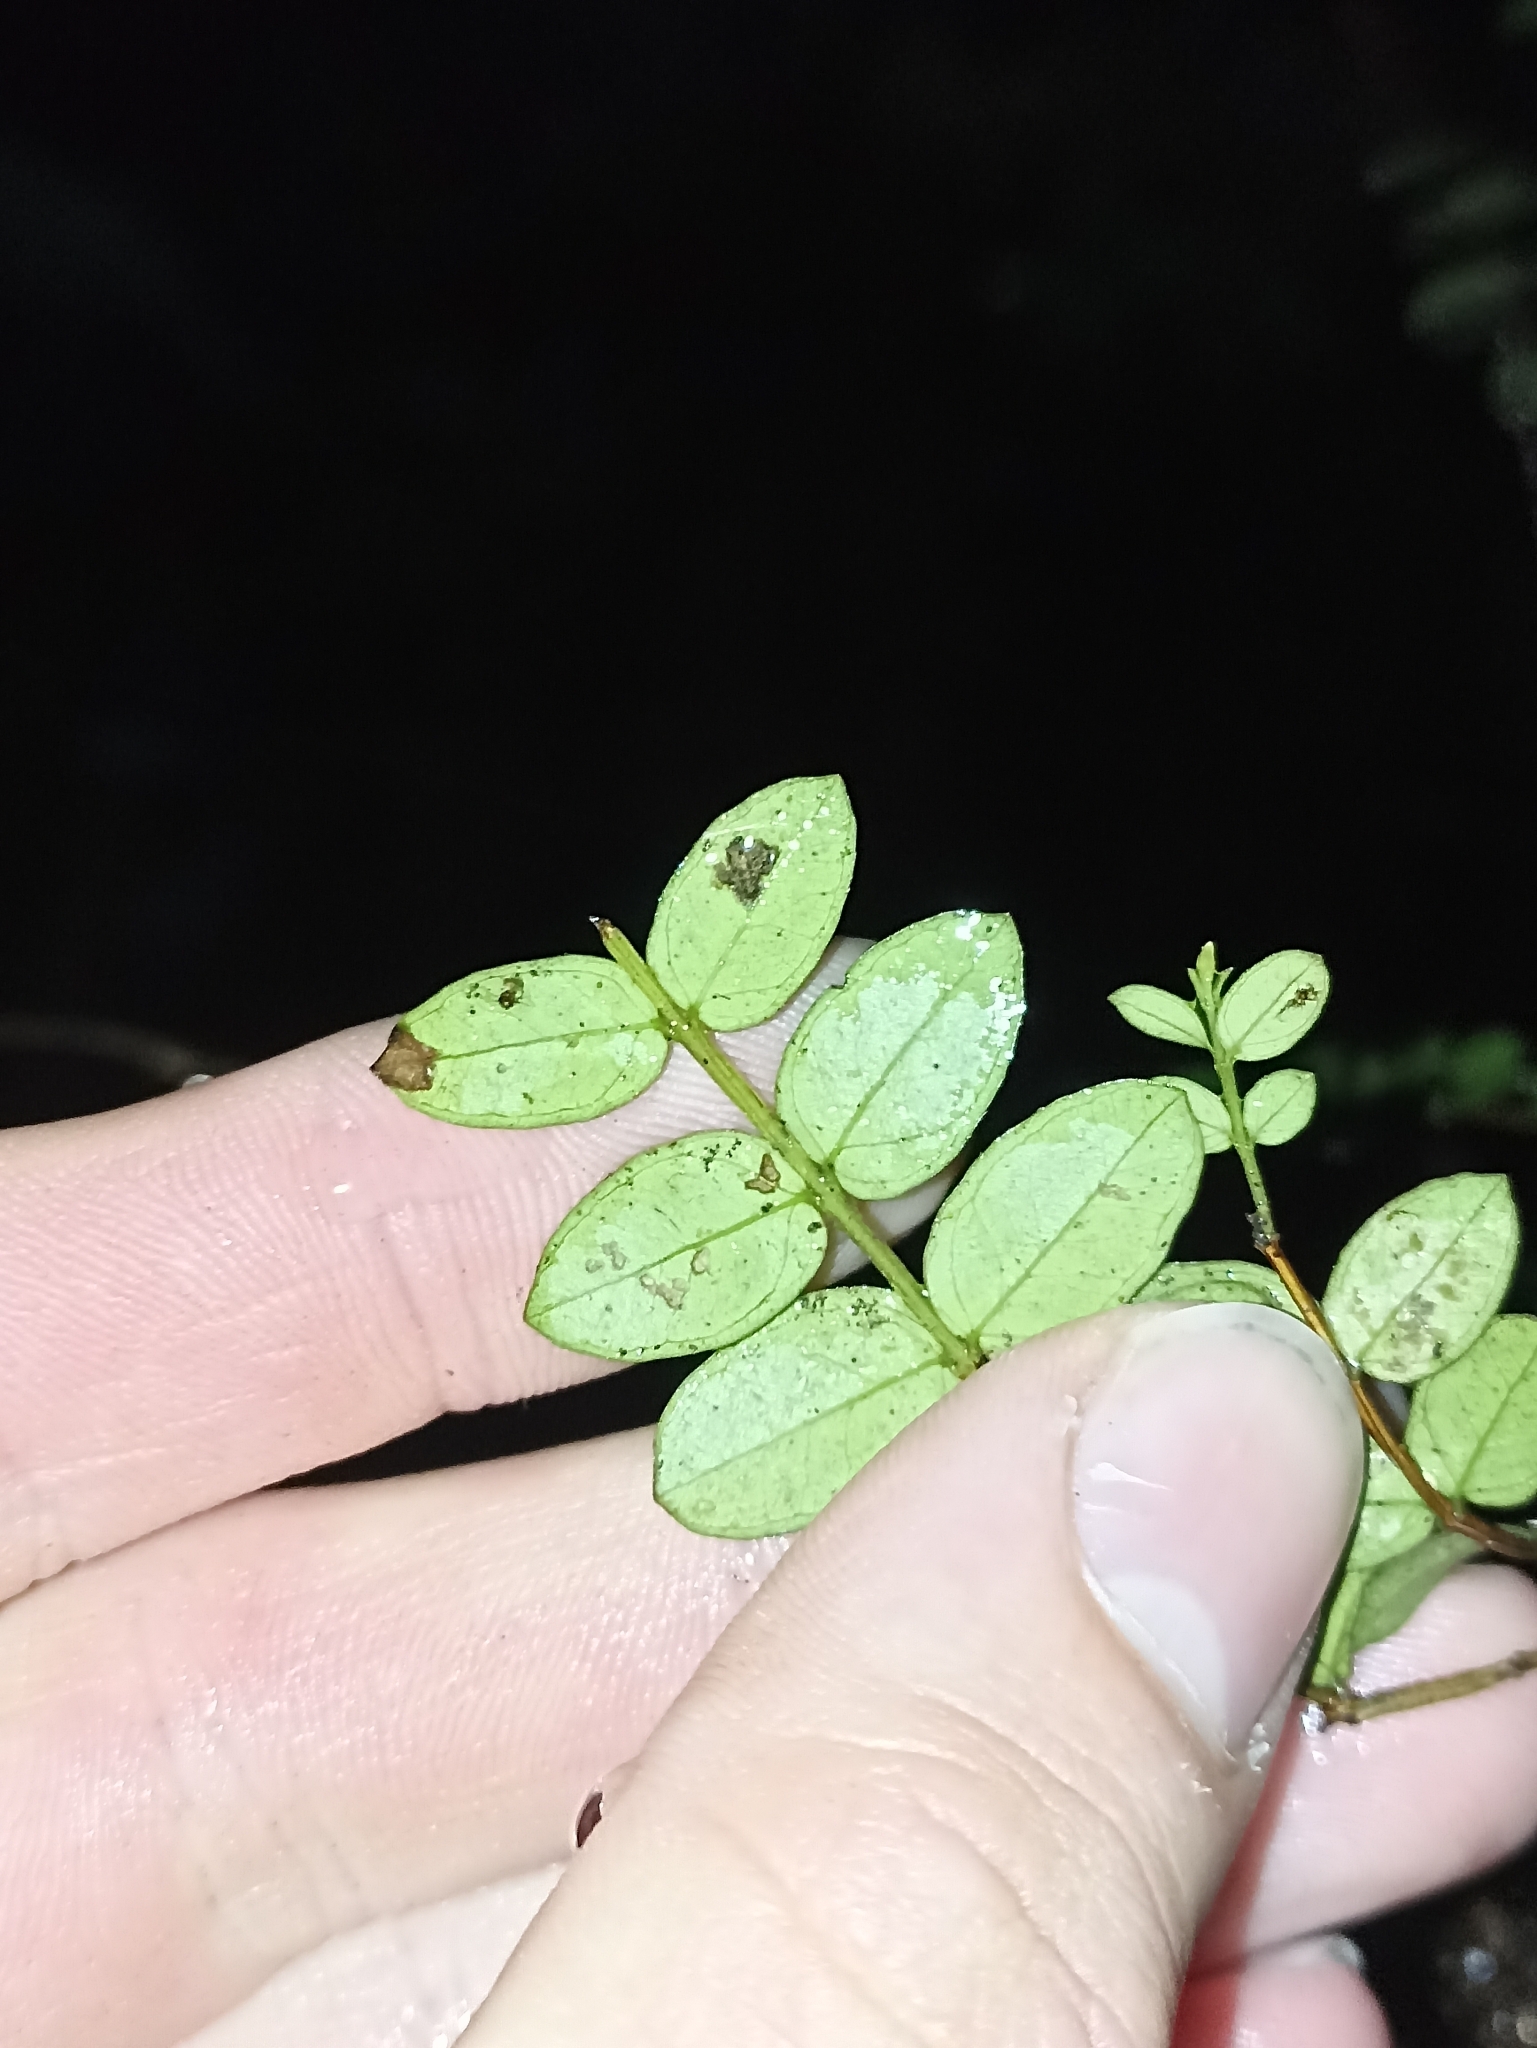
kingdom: Plantae
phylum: Tracheophyta
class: Magnoliopsida
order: Myrtales
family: Myrtaceae
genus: Metrosideros
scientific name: Metrosideros diffusa
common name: Small ratavine
